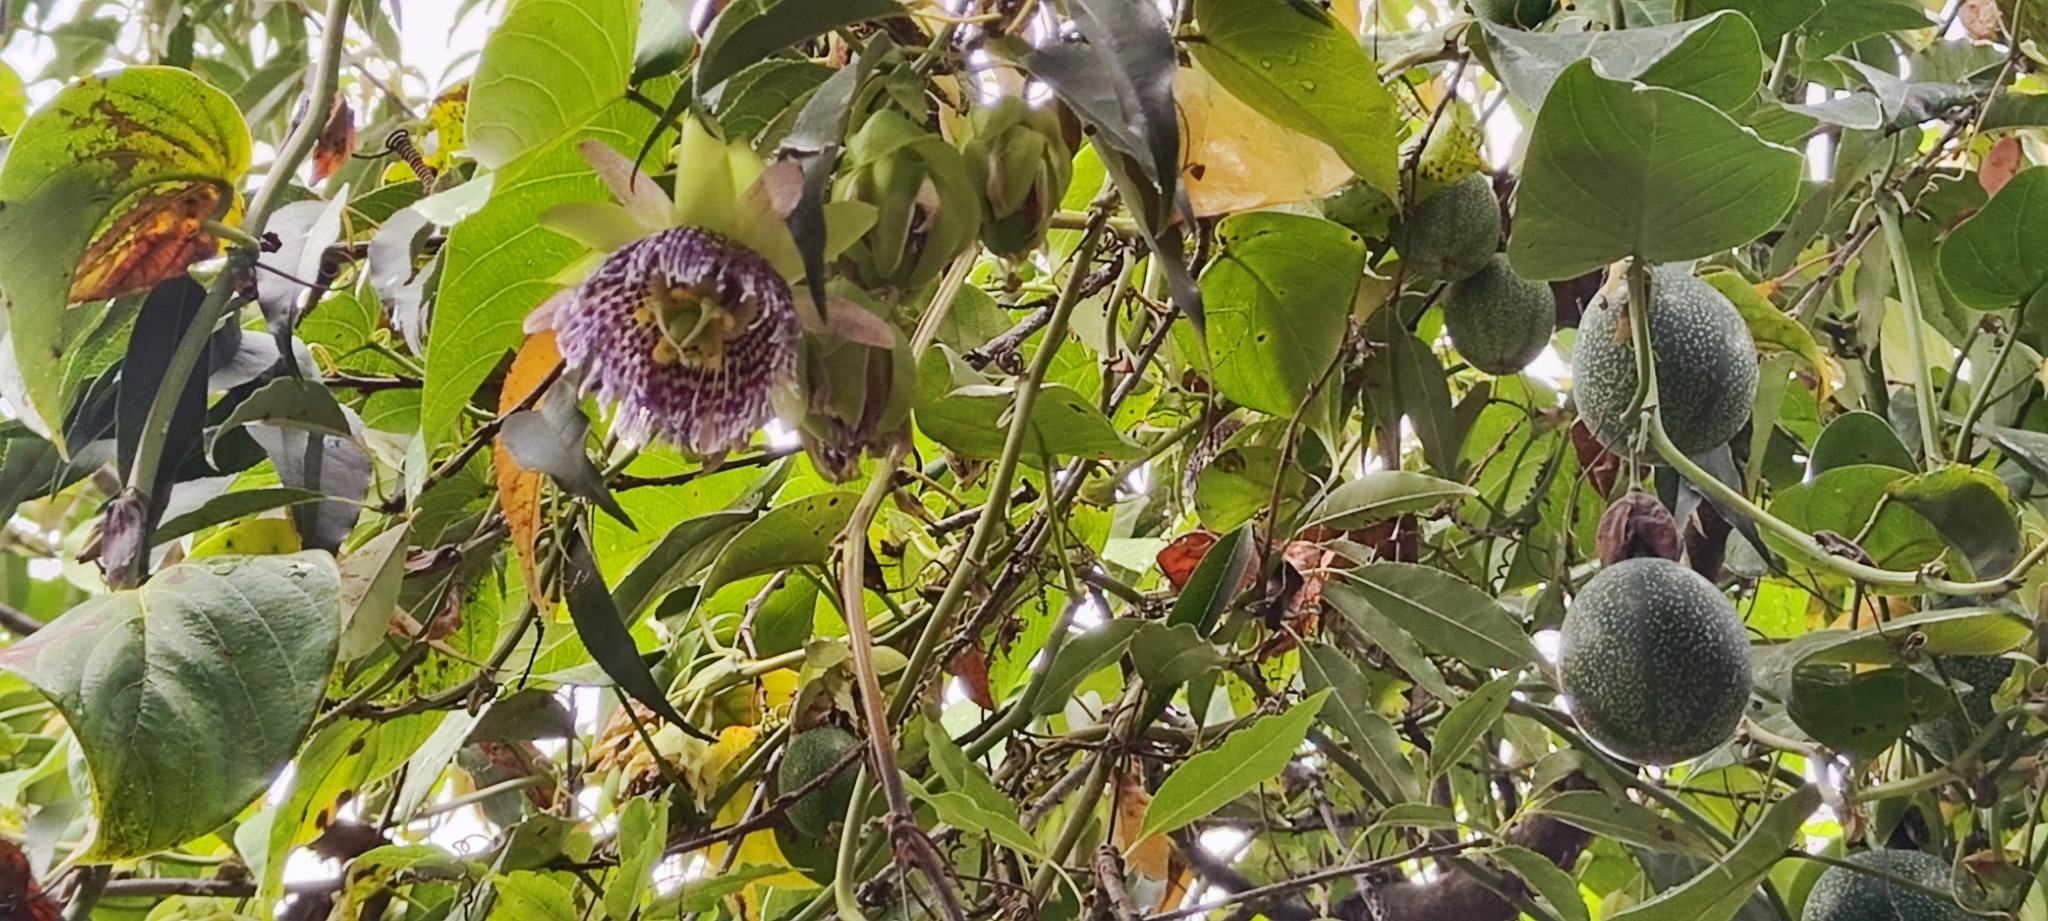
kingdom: Plantae
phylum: Tracheophyta
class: Magnoliopsida
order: Malpighiales
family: Passifloraceae
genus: Passiflora
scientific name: Passiflora ligularis
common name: Sweet granadilla
